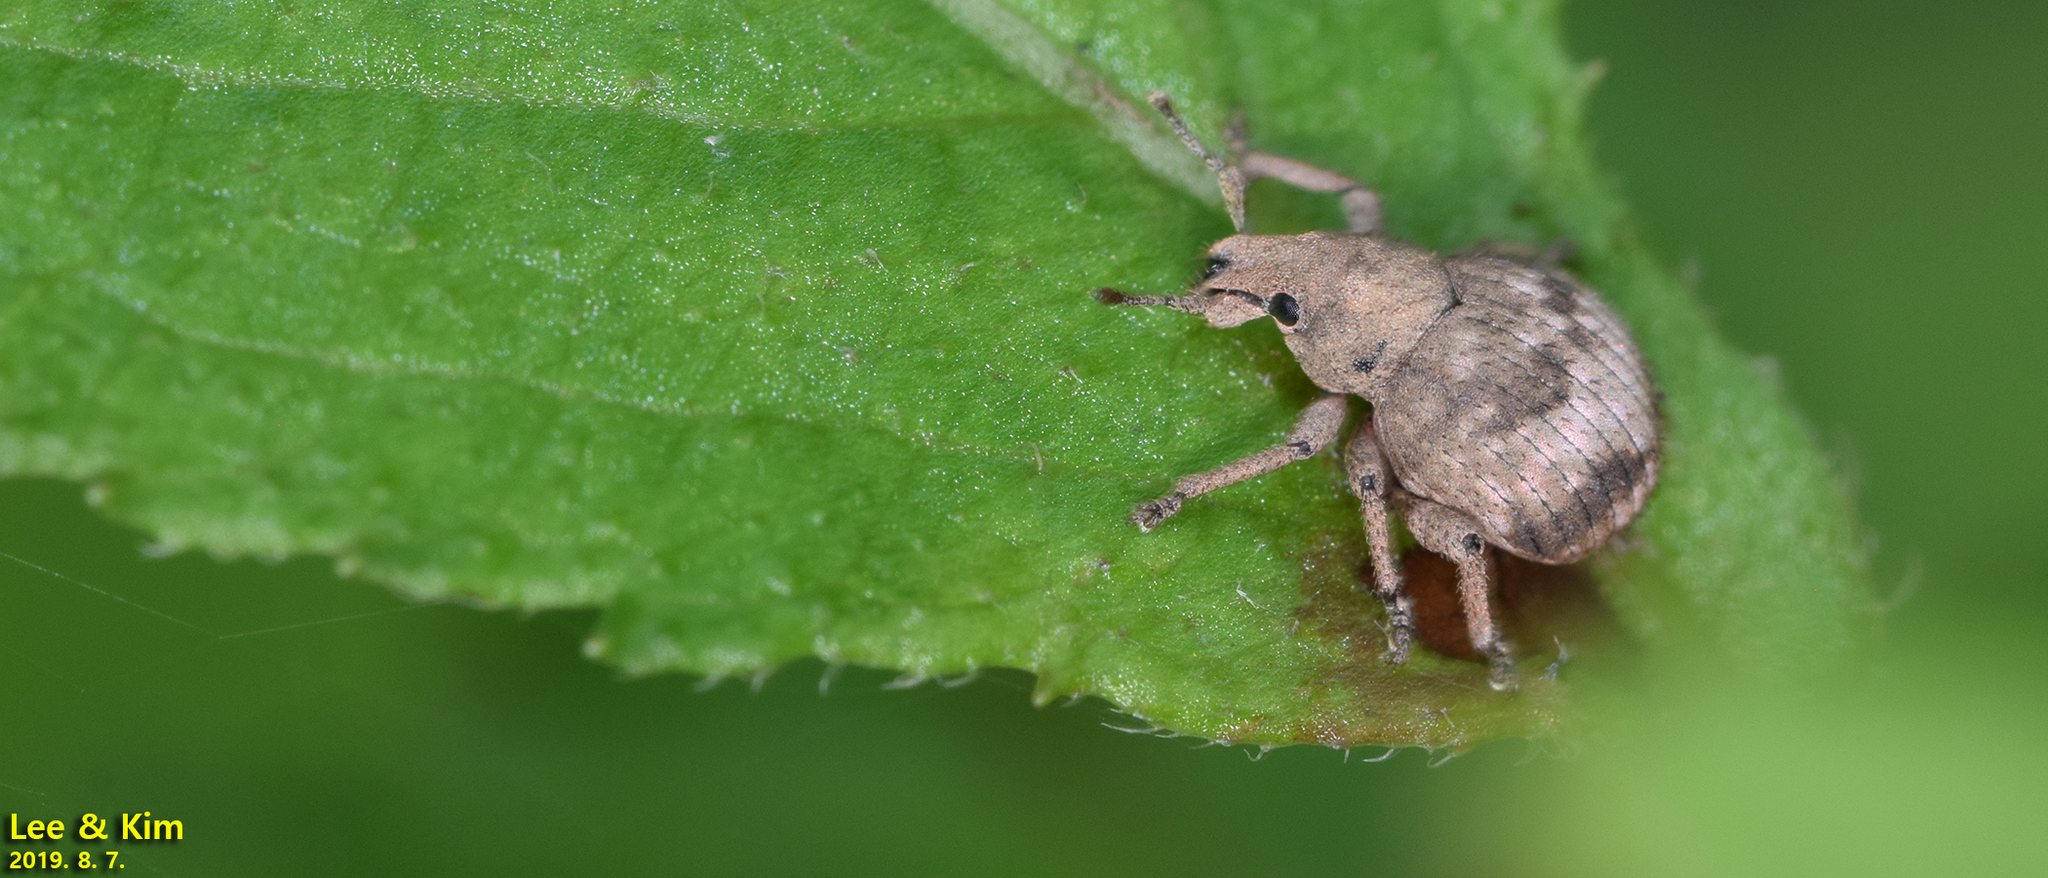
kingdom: Animalia
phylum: Arthropoda
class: Insecta
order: Coleoptera
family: Curculionidae
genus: Pseudocneorhinus
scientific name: Pseudocneorhinus bifasciatus
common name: Two-banded japanese weevil
